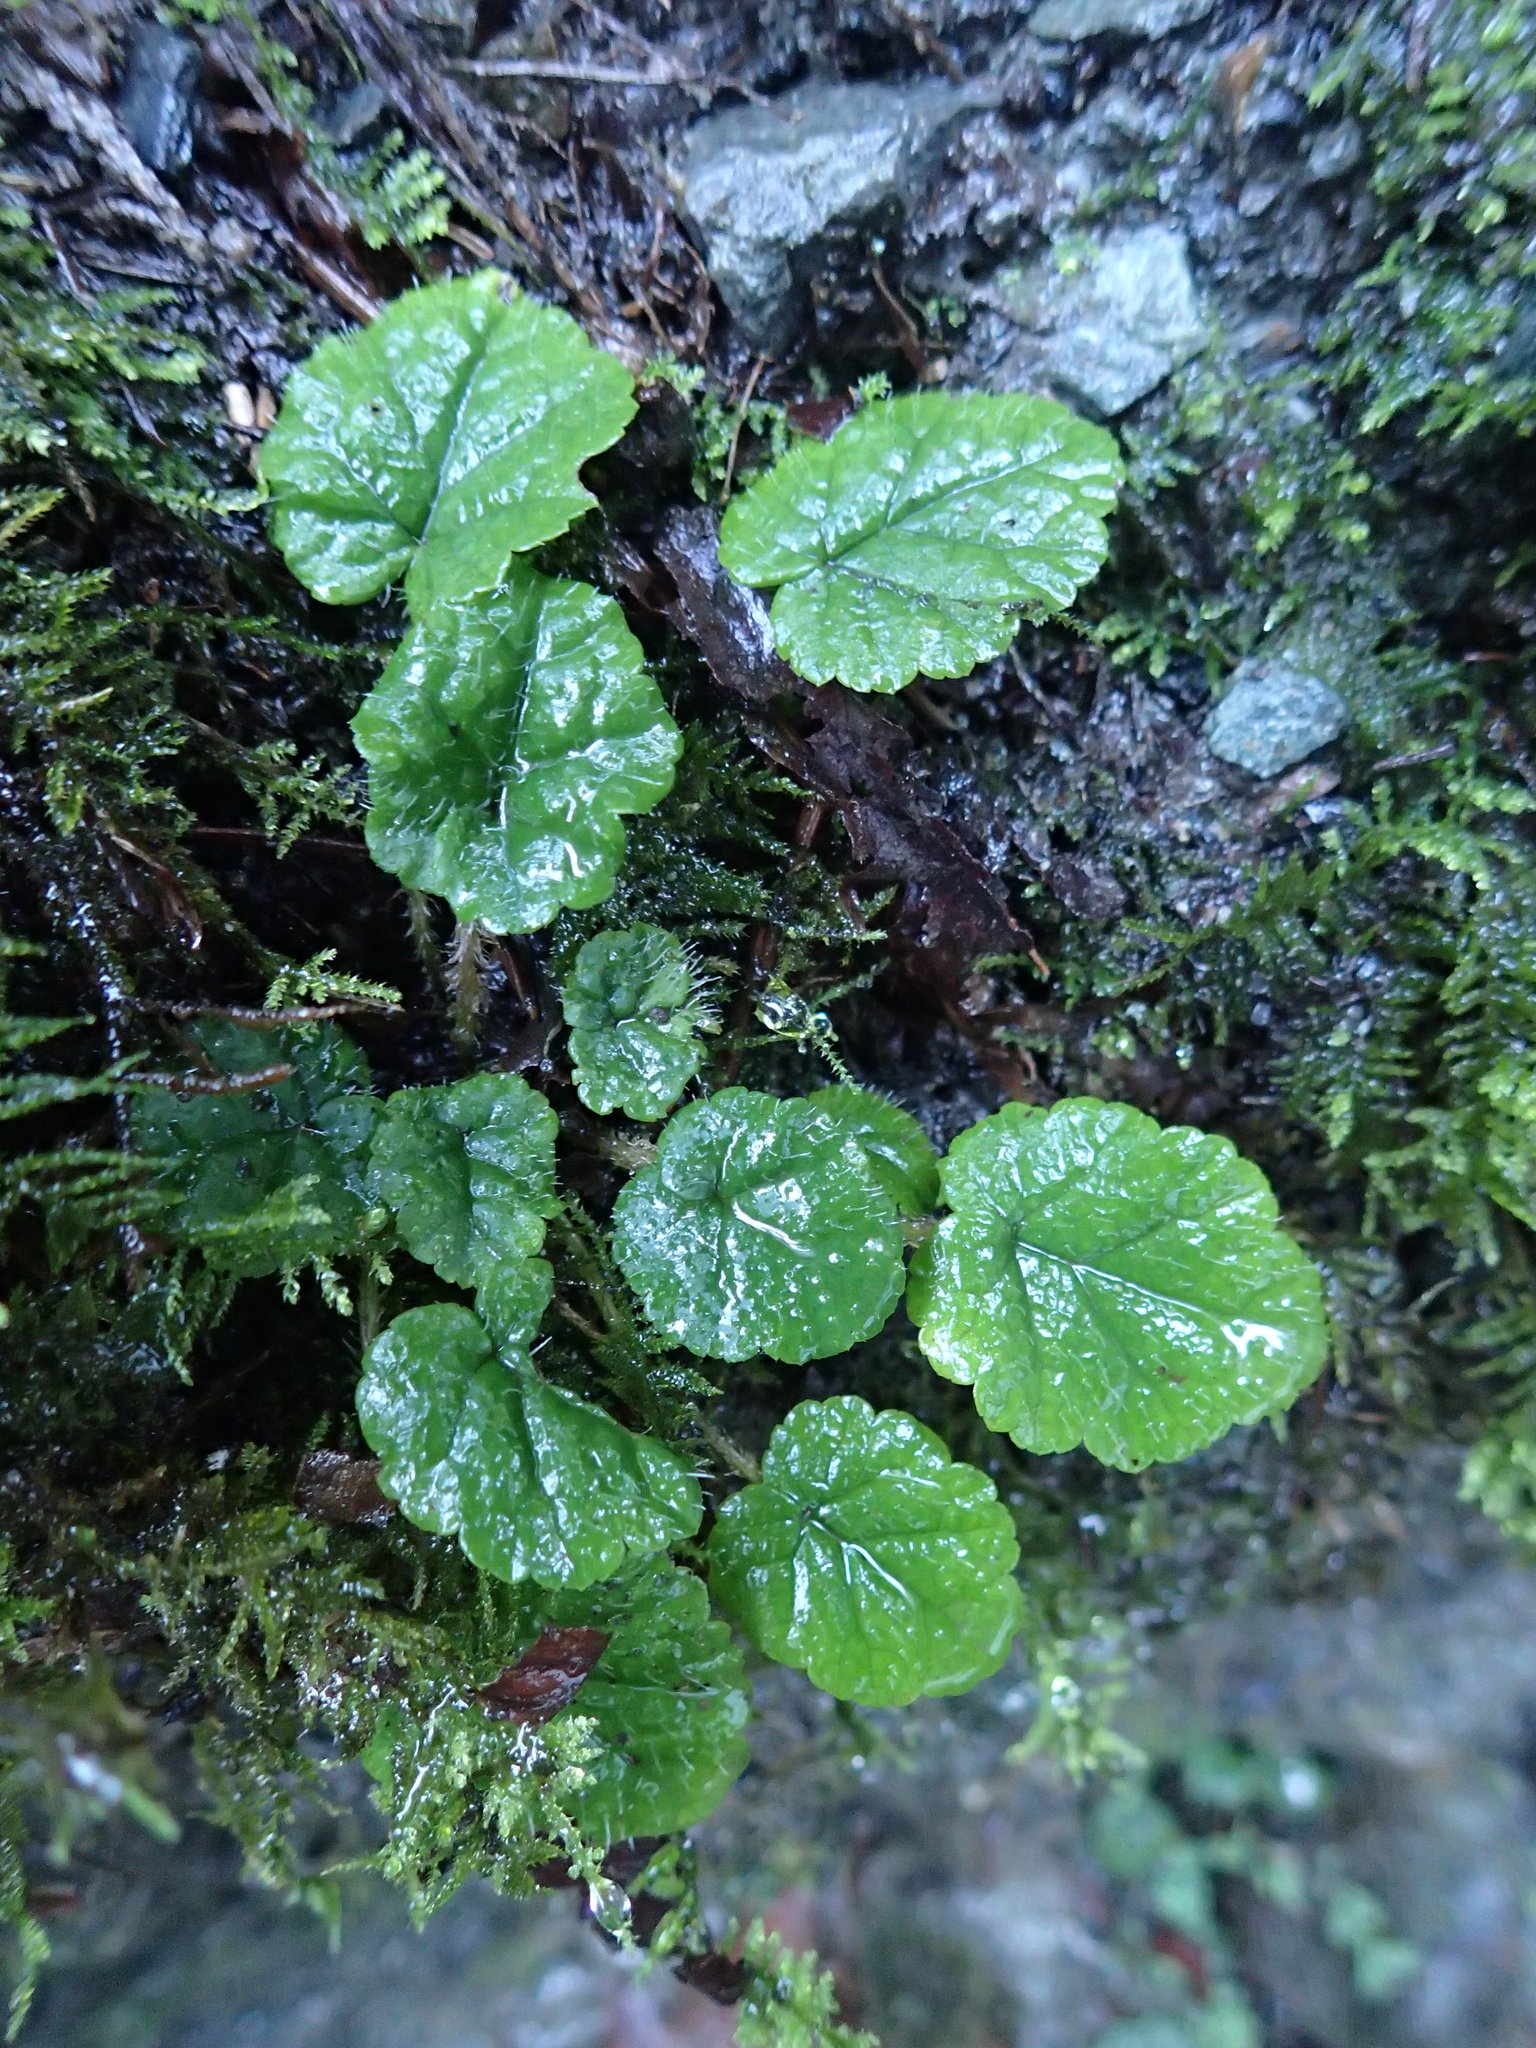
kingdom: Plantae
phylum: Tracheophyta
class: Magnoliopsida
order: Saxifragales
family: Saxifragaceae
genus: Brewerimitella
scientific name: Brewerimitella ovalis
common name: Coastal bishop's-cap
